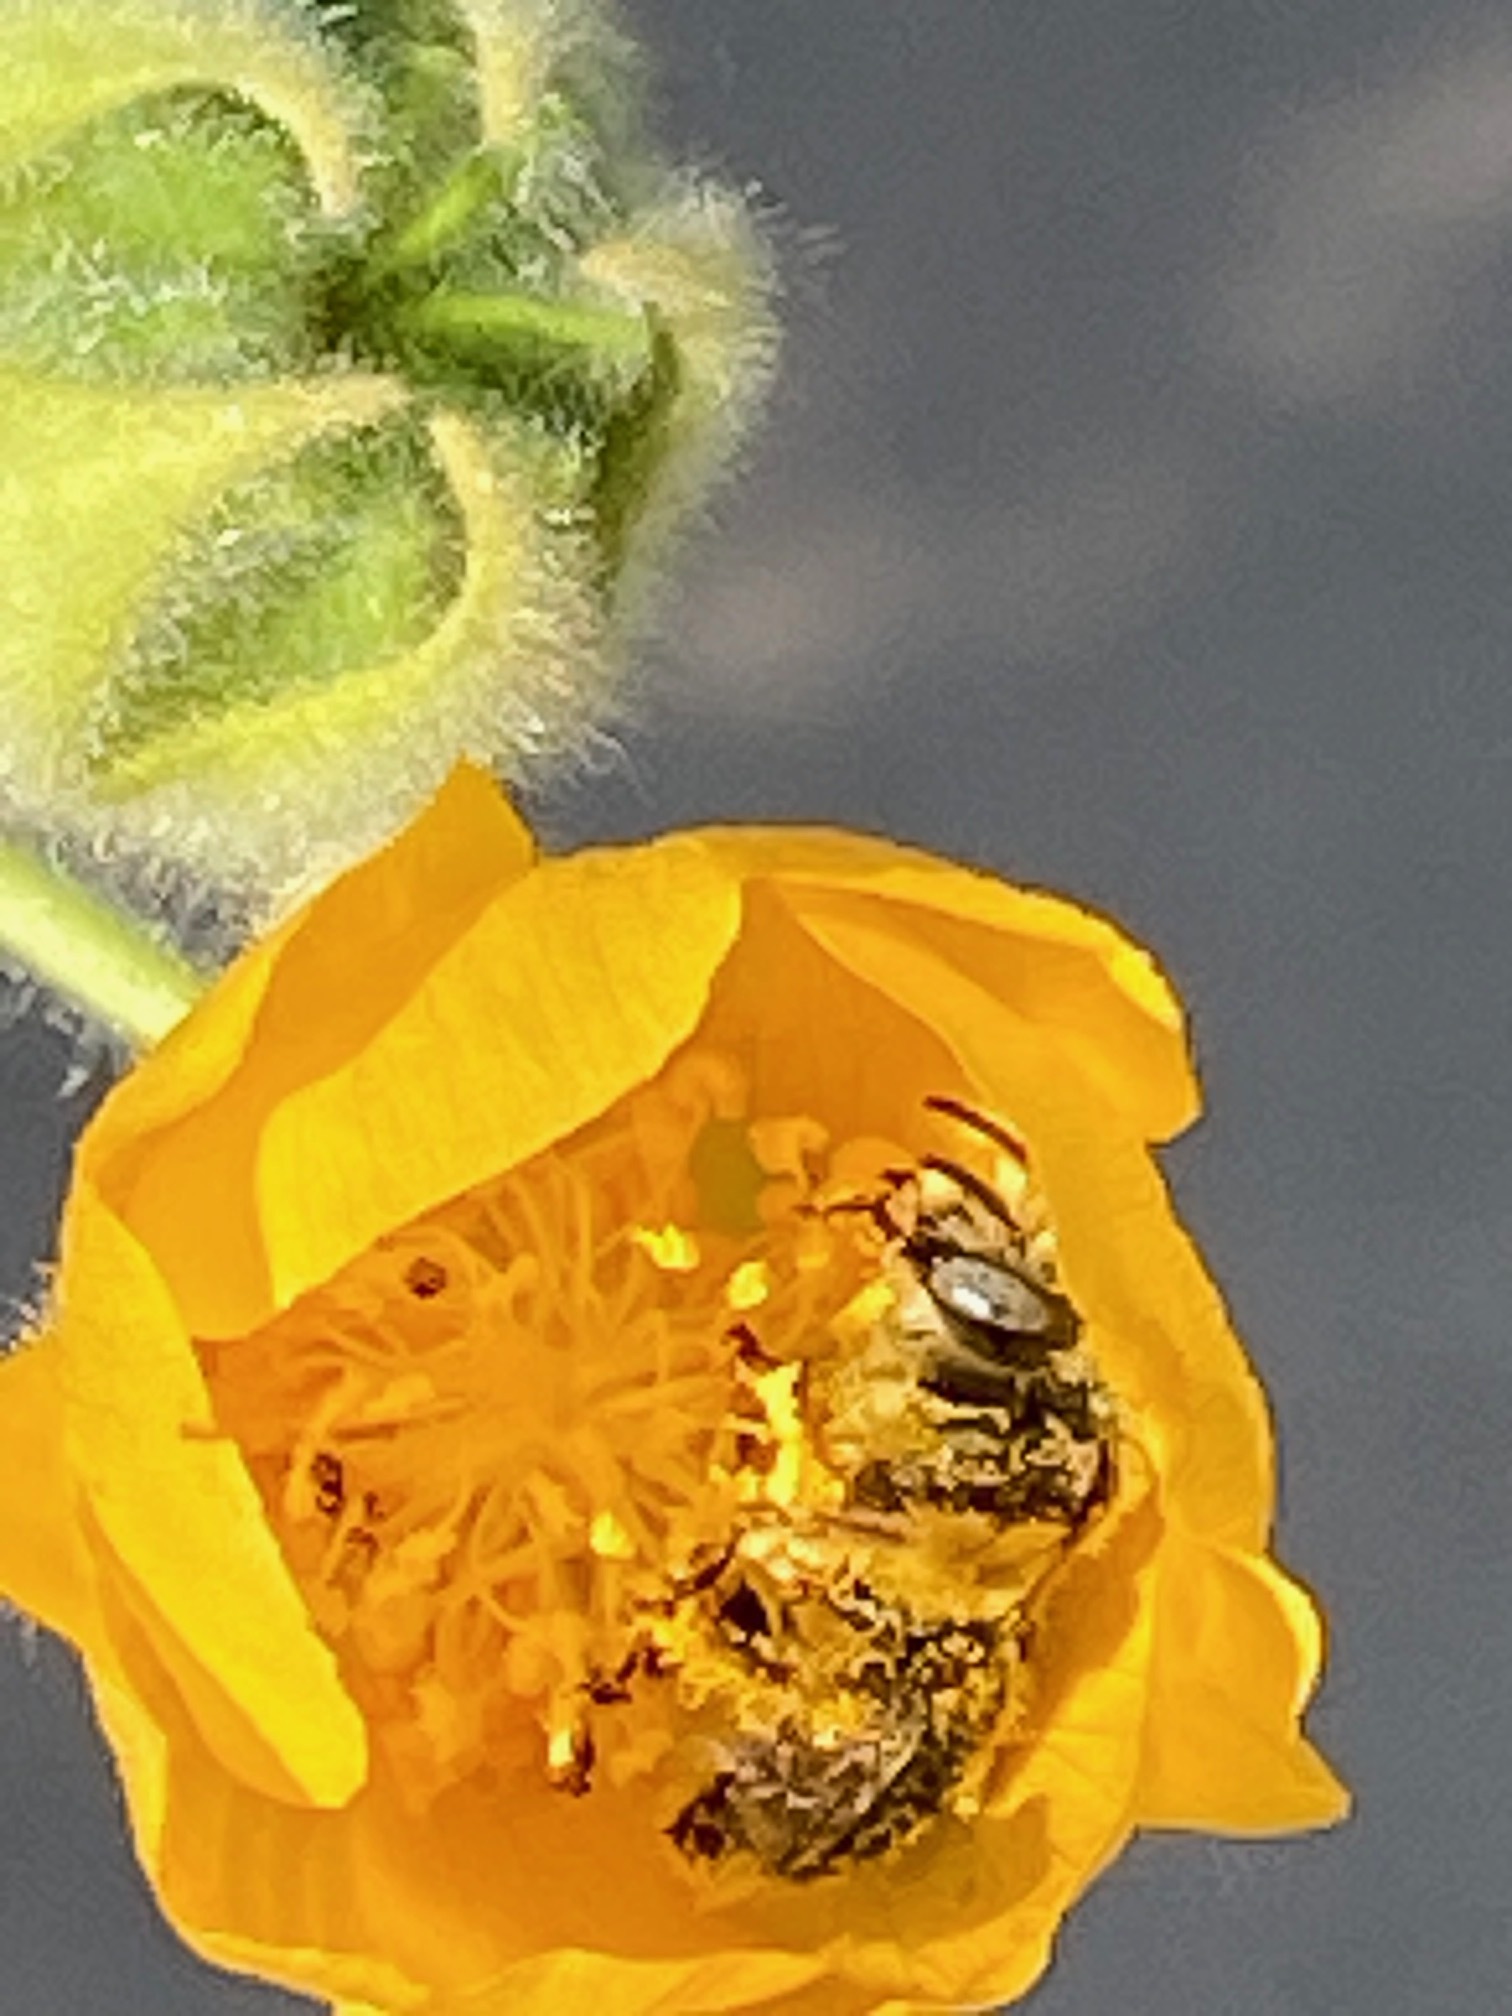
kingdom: Animalia
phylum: Arthropoda
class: Insecta
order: Hymenoptera
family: Apidae
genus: Diadasia
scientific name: Diadasia bituberculata
